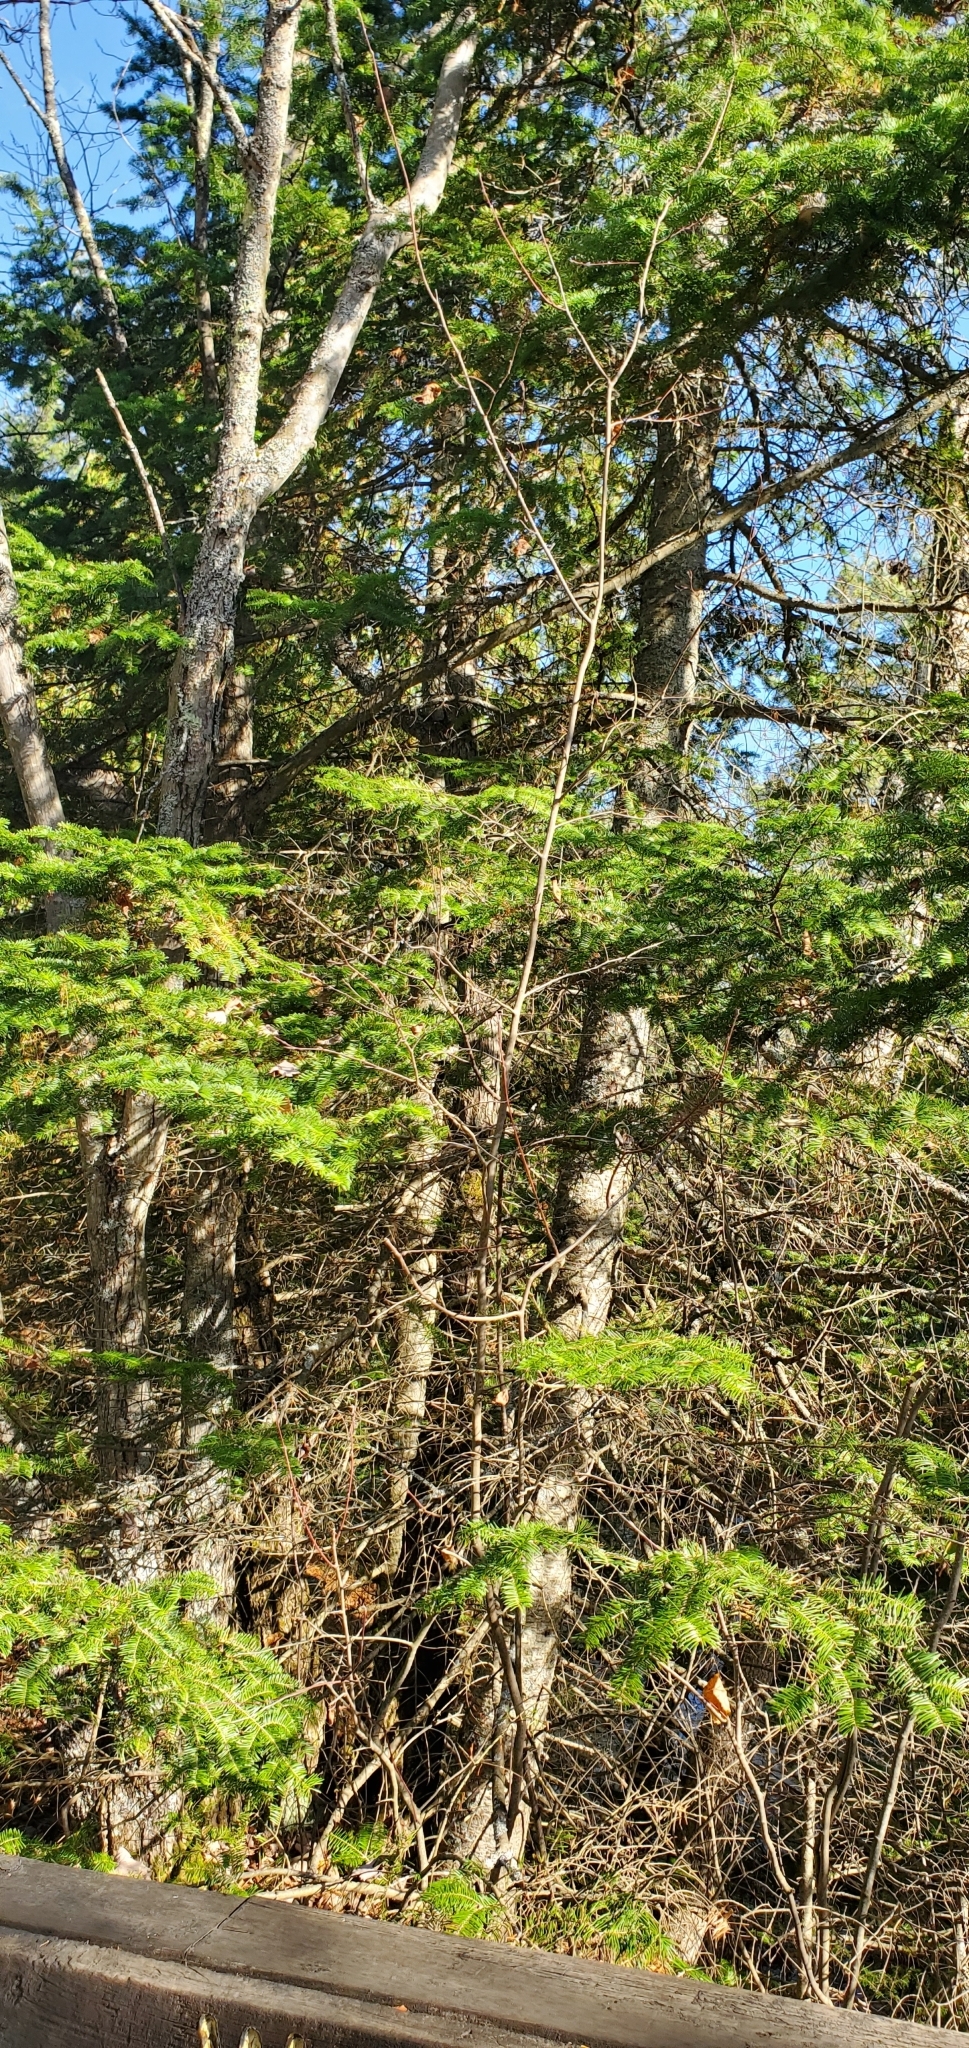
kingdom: Plantae
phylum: Tracheophyta
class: Pinopsida
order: Pinales
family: Pinaceae
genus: Abies
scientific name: Abies balsamea
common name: Balsam fir
